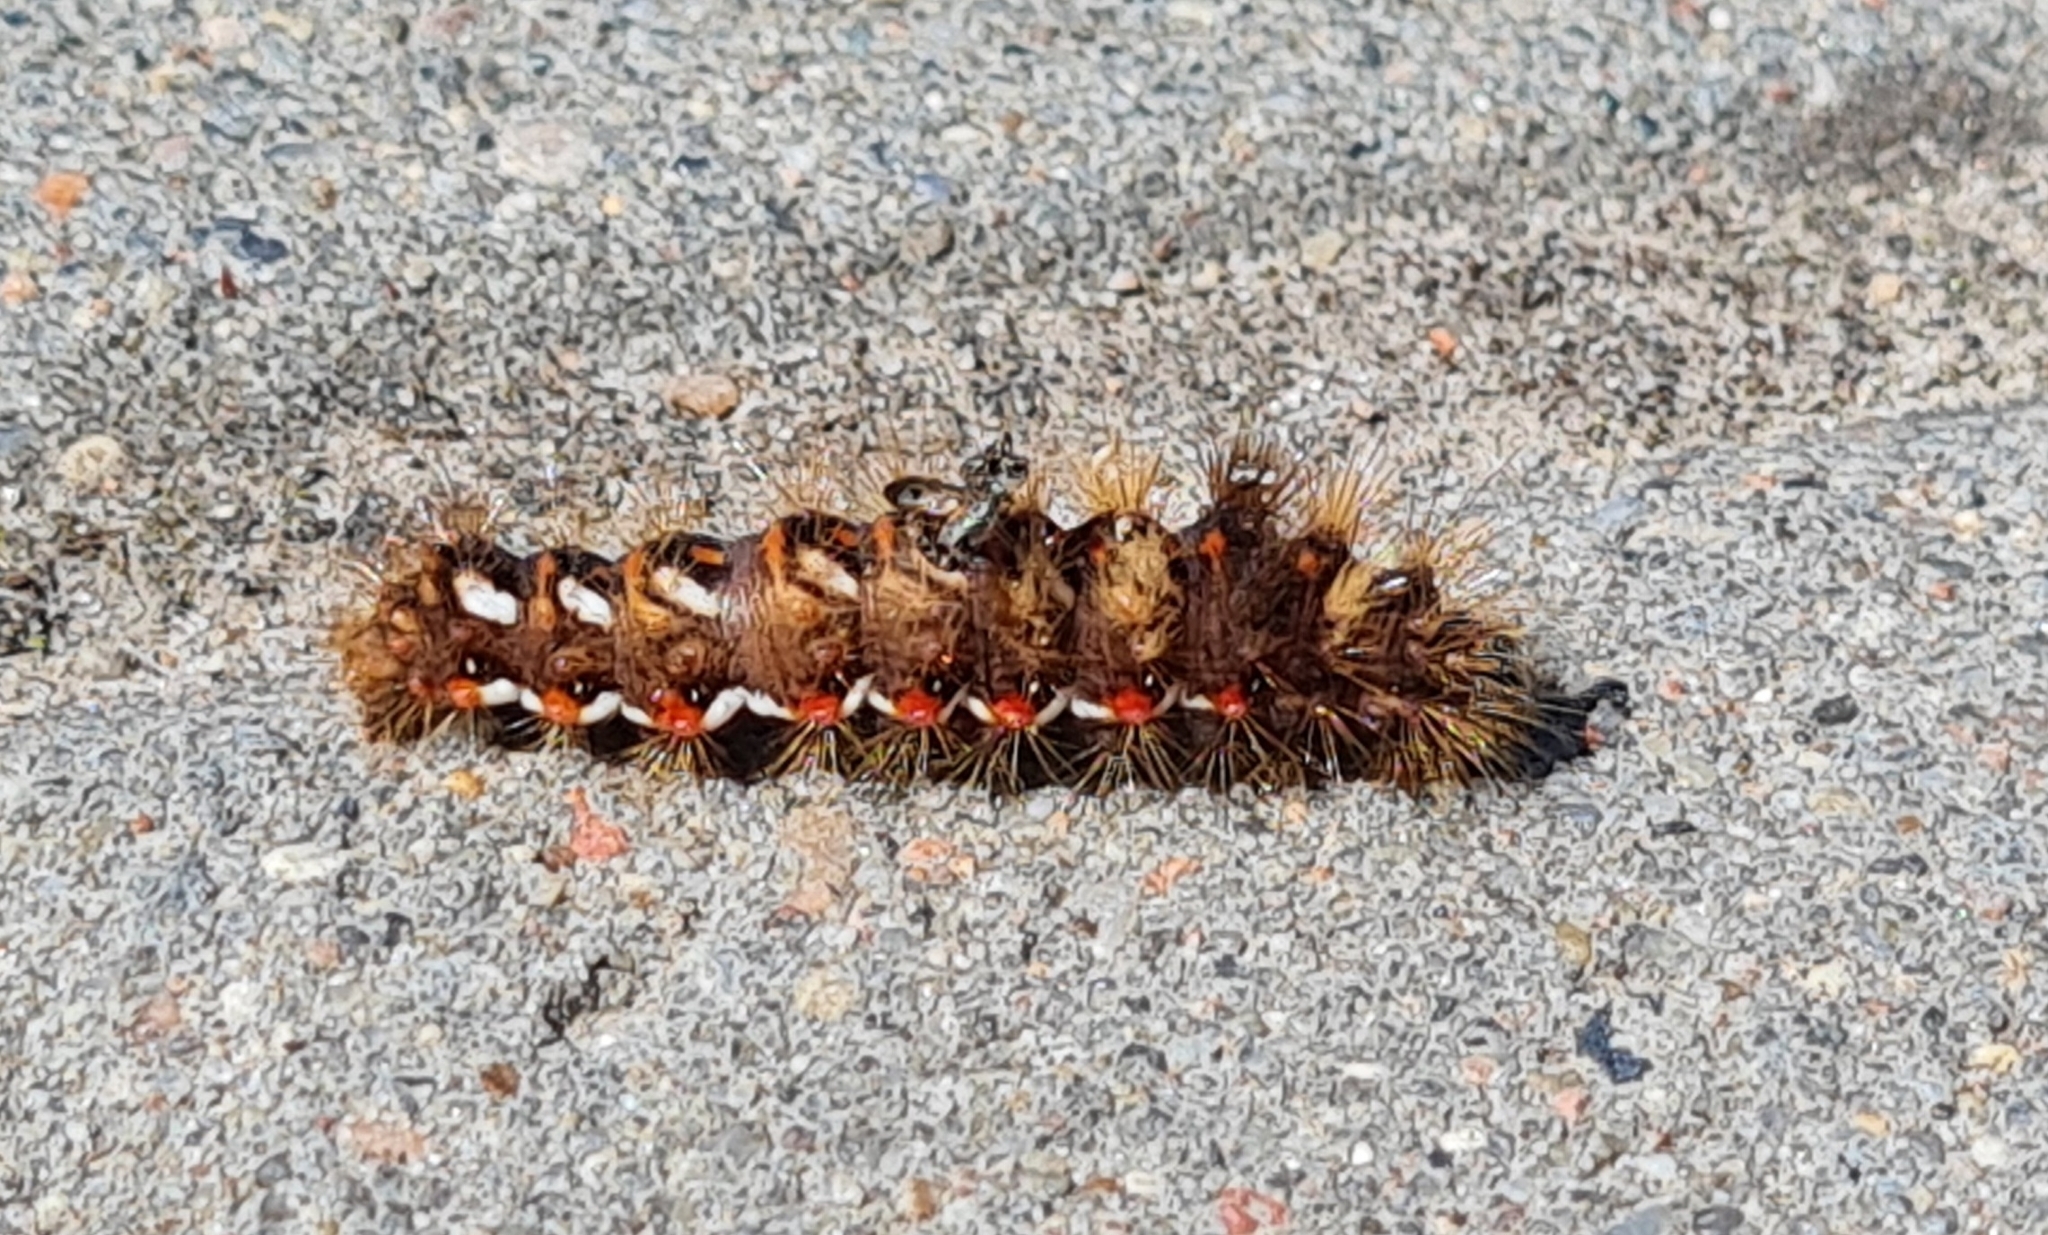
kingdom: Animalia
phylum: Arthropoda
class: Insecta
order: Lepidoptera
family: Noctuidae
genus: Acronicta
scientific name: Acronicta rumicis
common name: Knot grass
